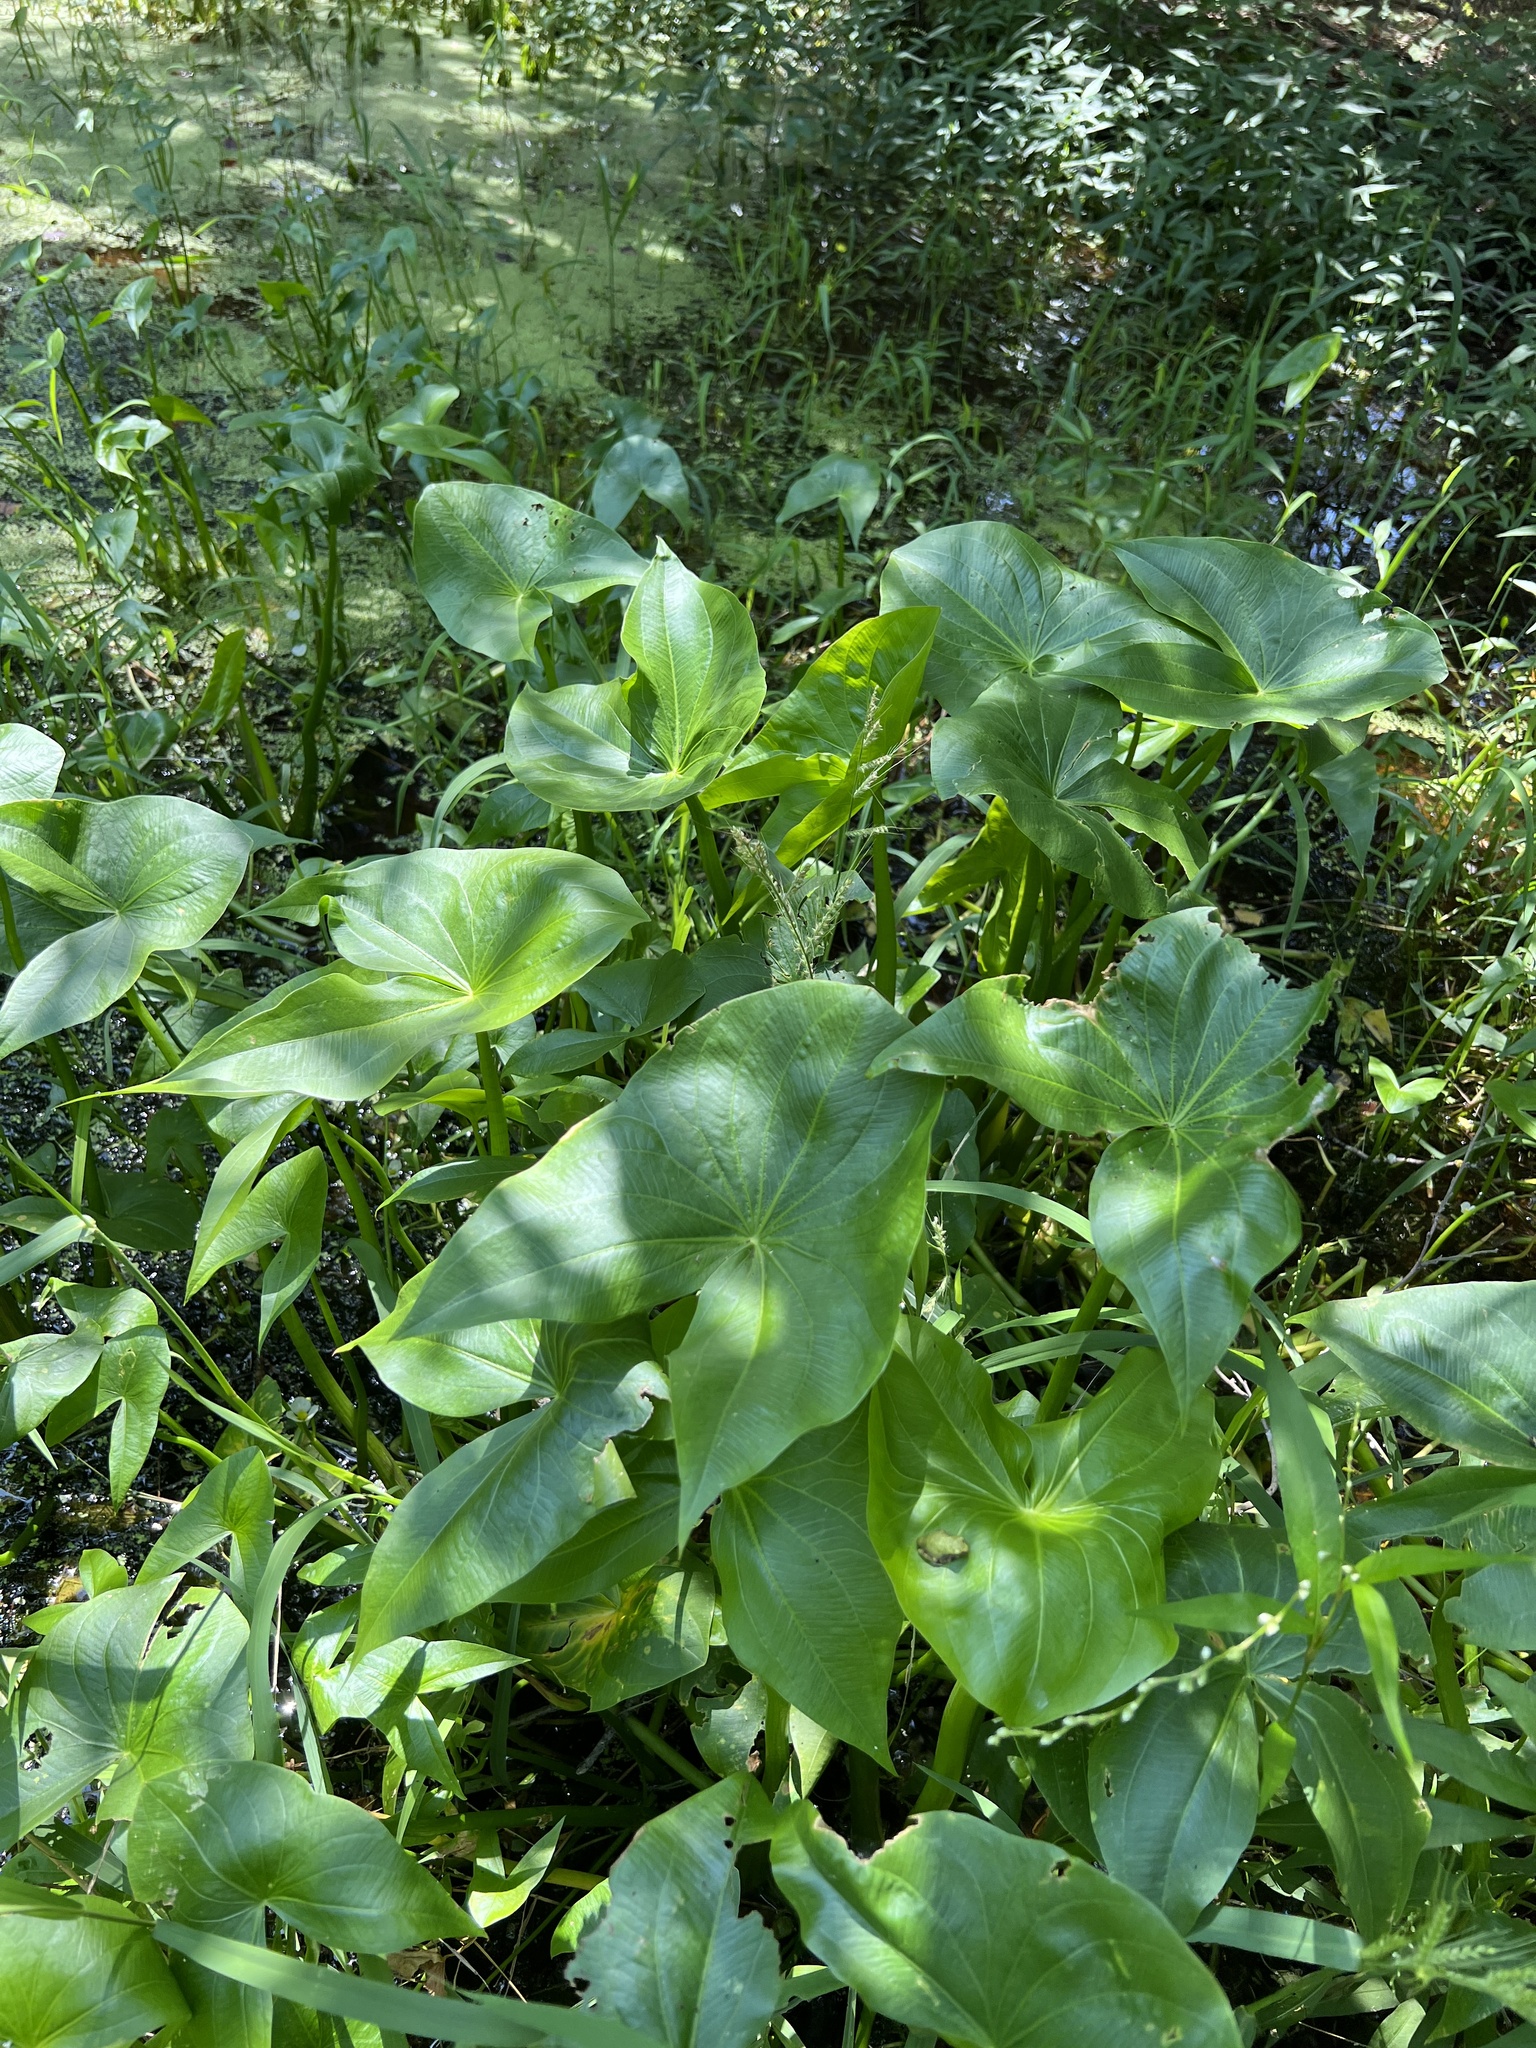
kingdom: Plantae
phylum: Tracheophyta
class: Liliopsida
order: Alismatales
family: Alismataceae
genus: Sagittaria
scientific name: Sagittaria calycina
